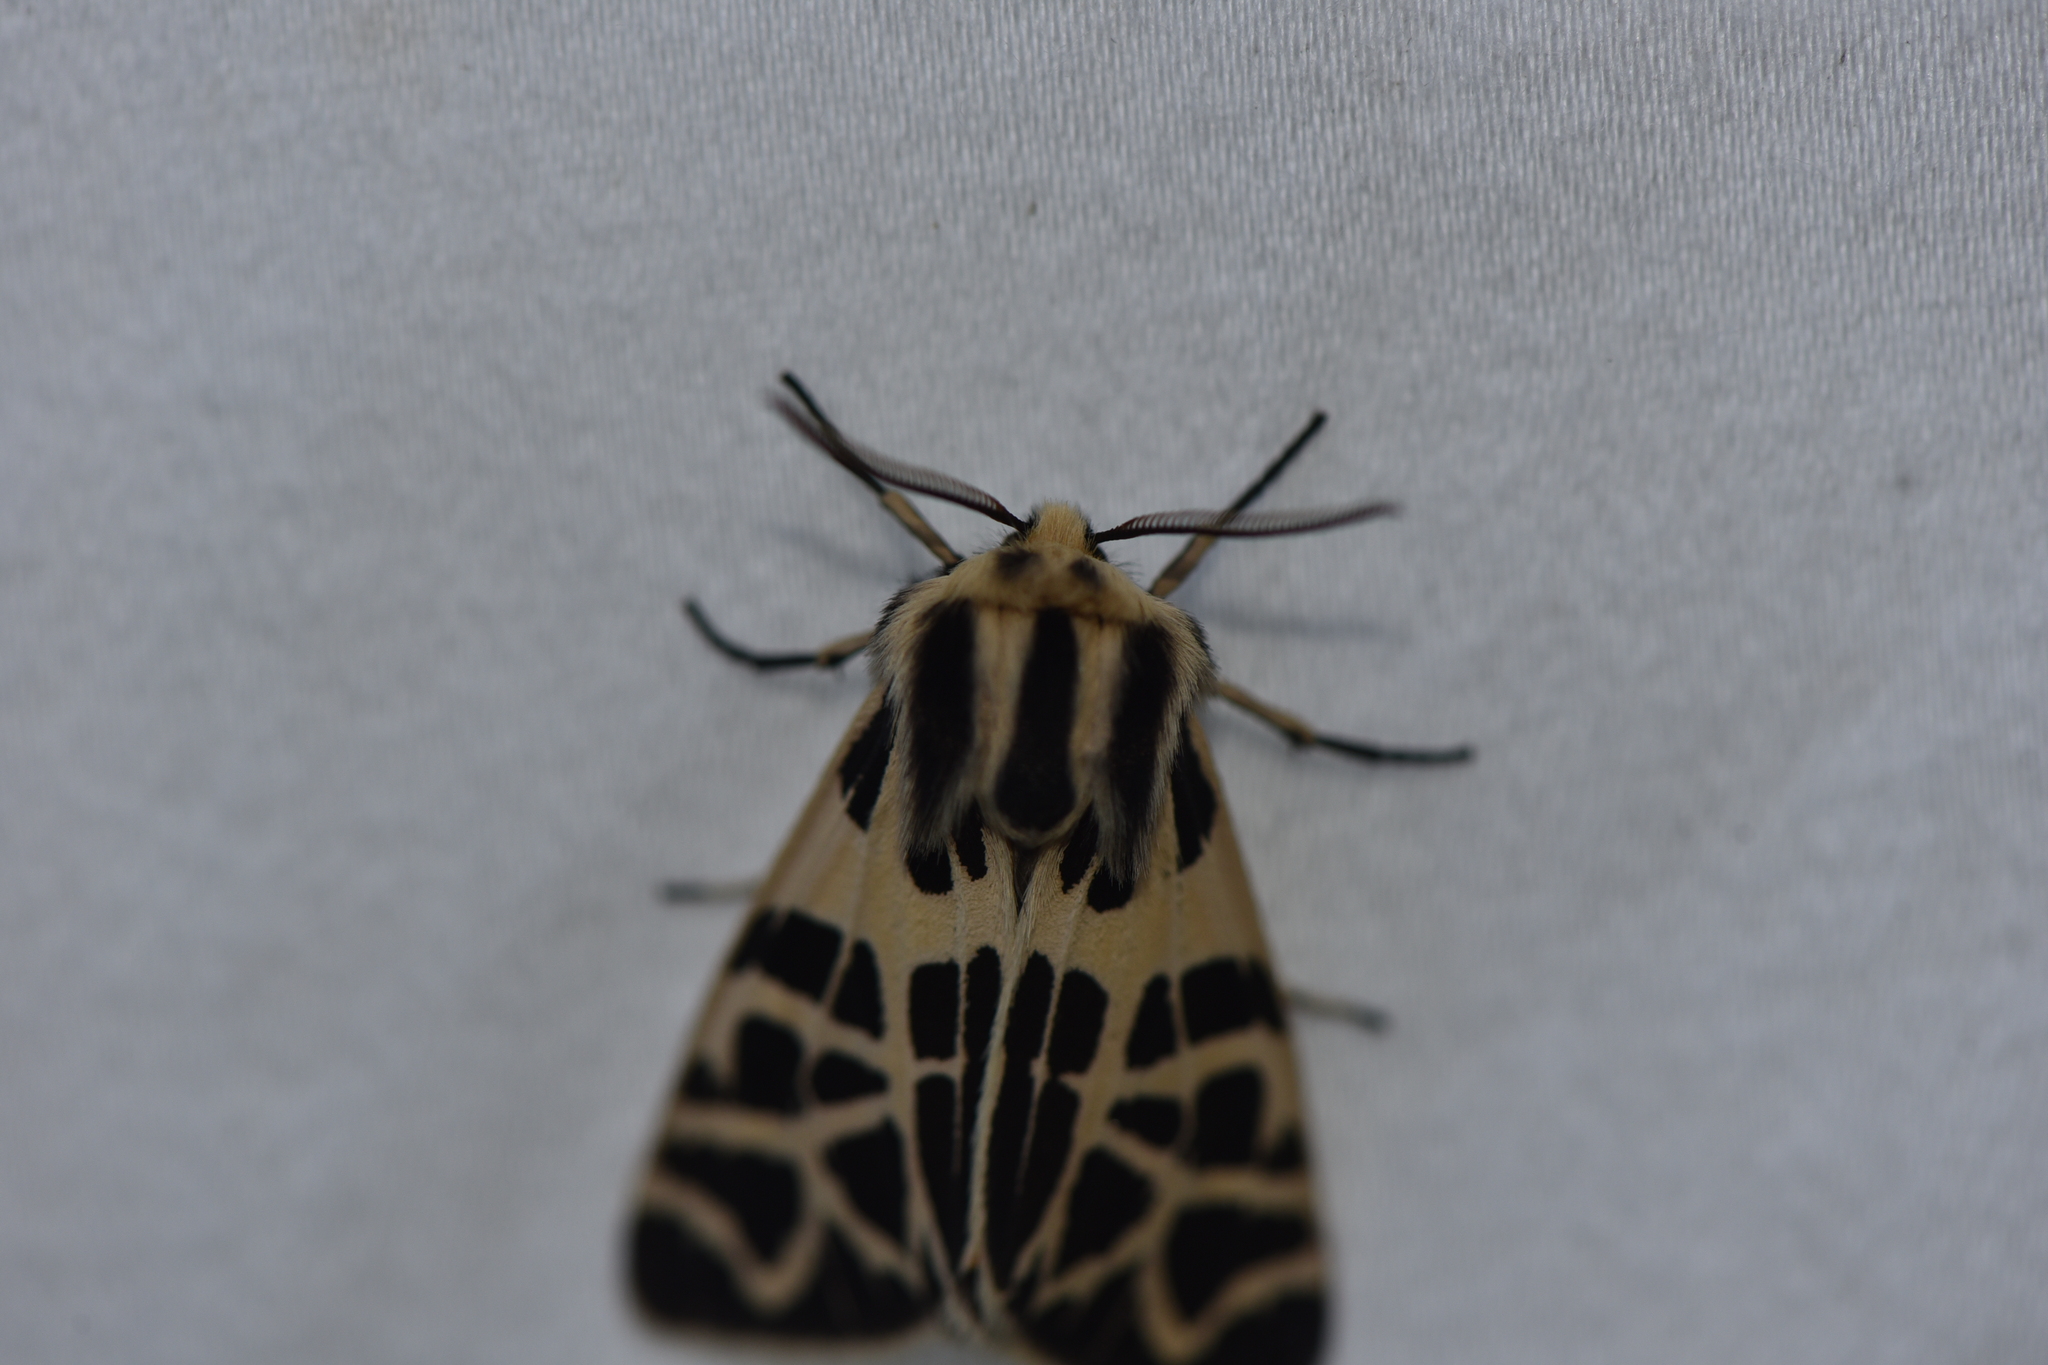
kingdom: Animalia
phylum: Arthropoda
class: Insecta
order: Lepidoptera
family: Erebidae
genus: Apantesis
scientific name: Apantesis
